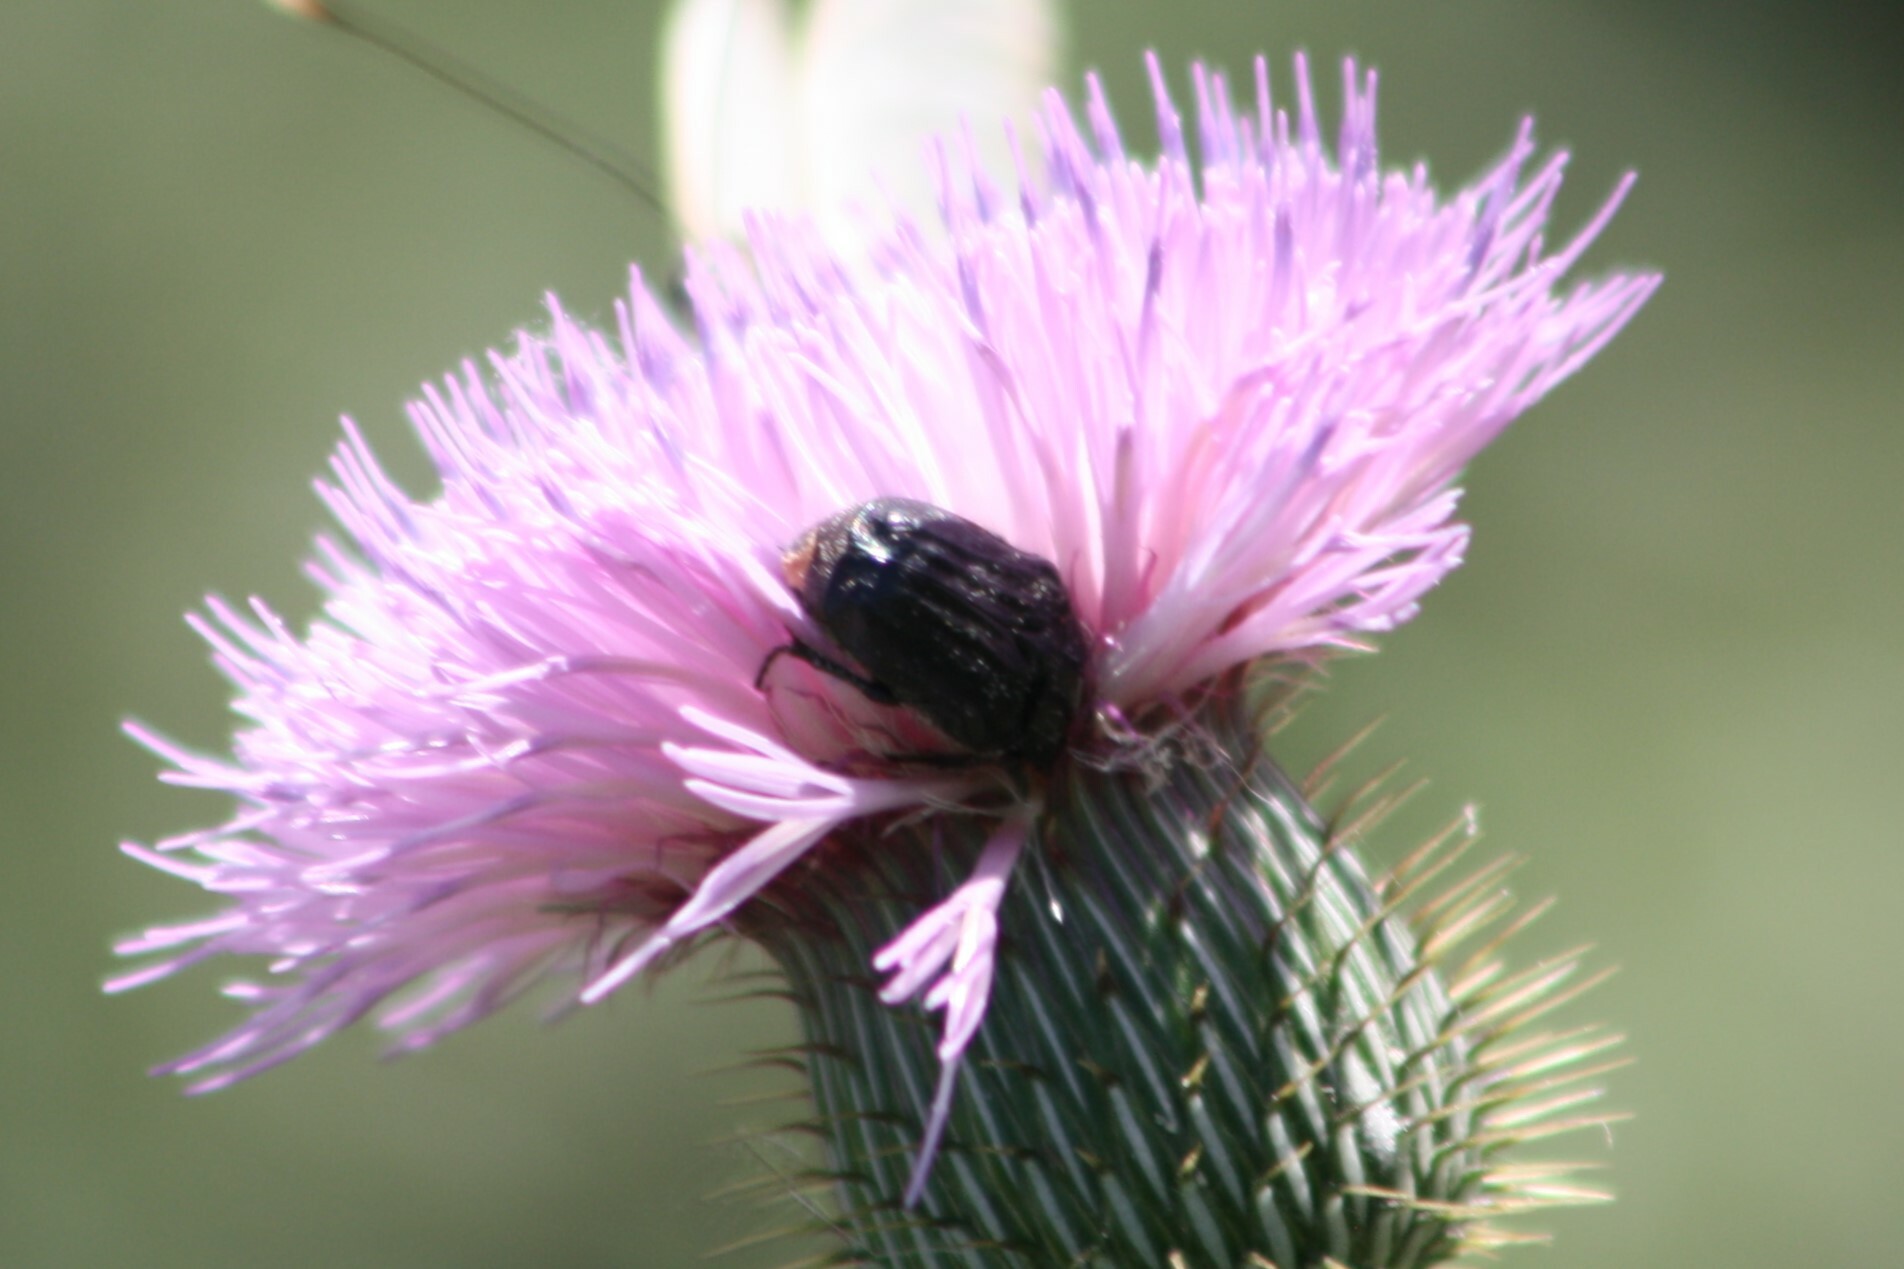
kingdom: Animalia
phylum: Arthropoda
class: Insecta
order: Coleoptera
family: Scarabaeidae
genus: Euphoria
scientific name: Euphoria sepulcralis
